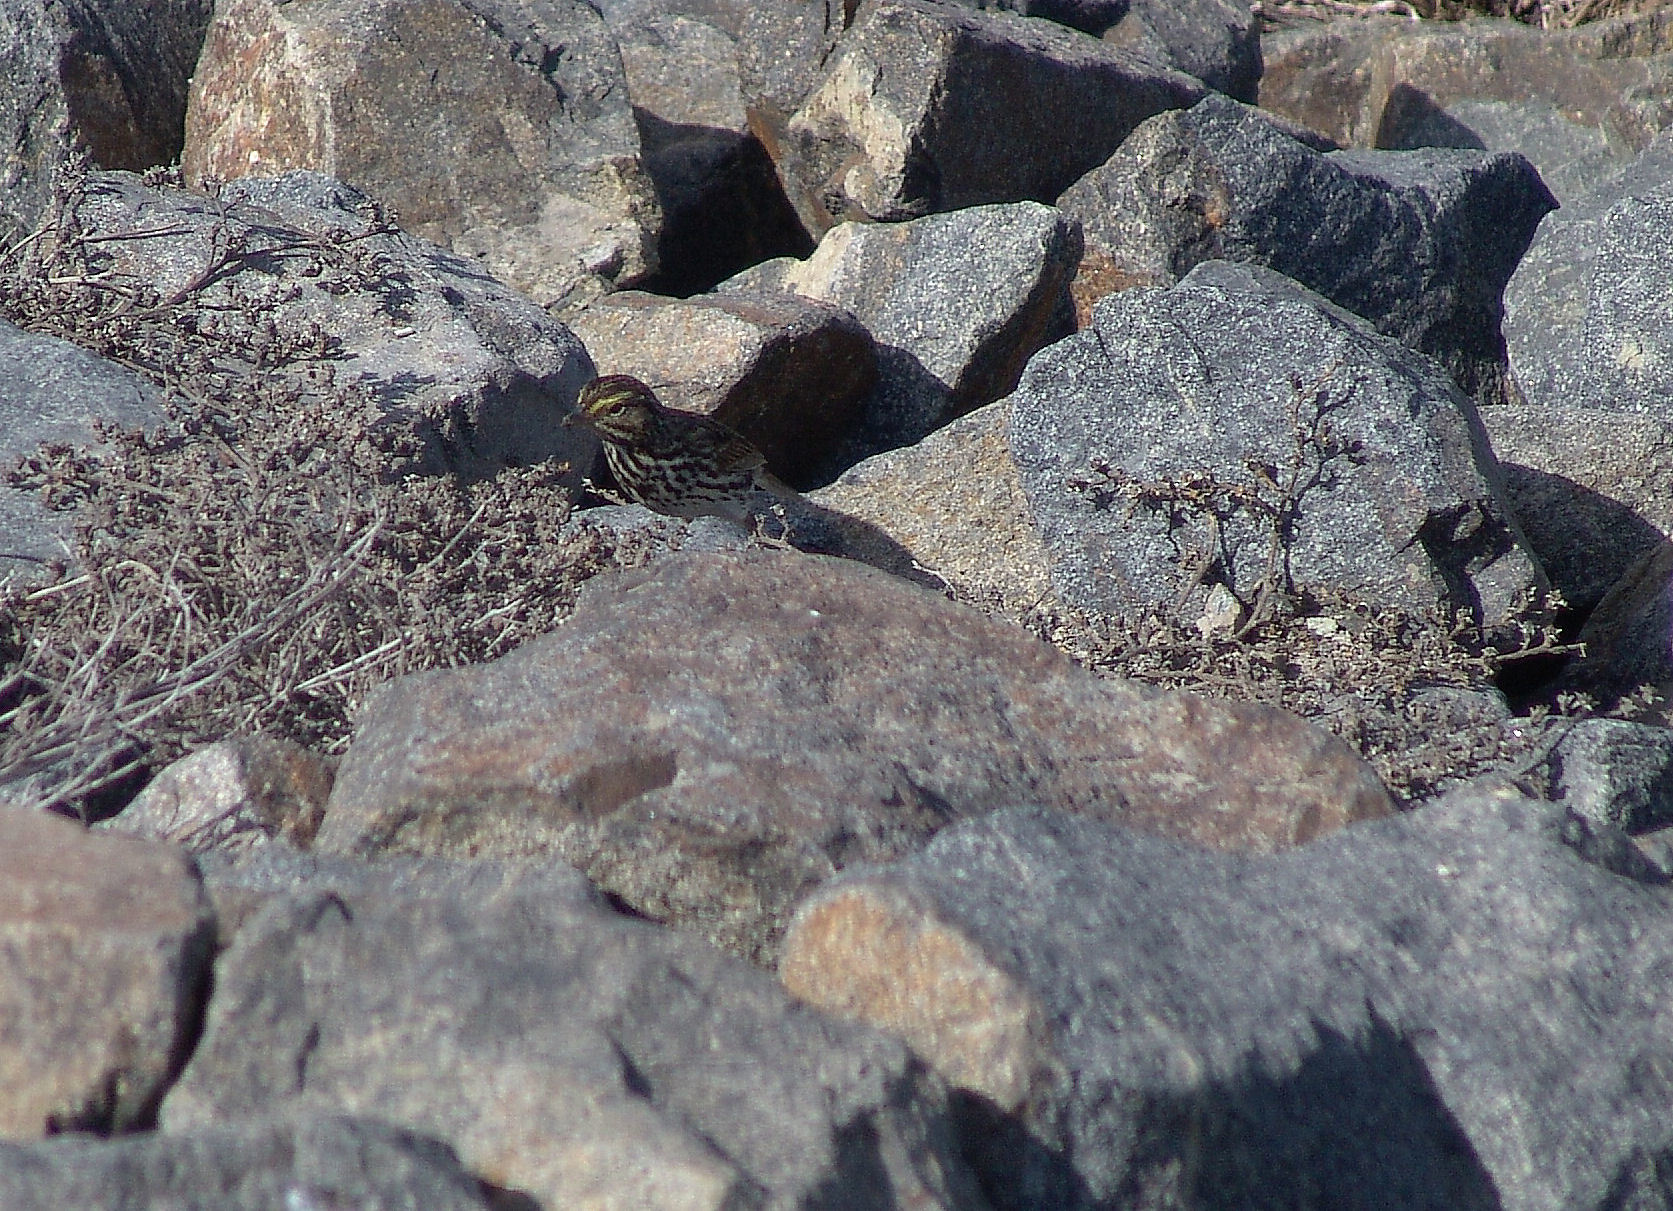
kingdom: Animalia
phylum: Chordata
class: Aves
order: Passeriformes
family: Passerellidae
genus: Passerculus
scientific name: Passerculus sandwichensis
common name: Savannah sparrow
